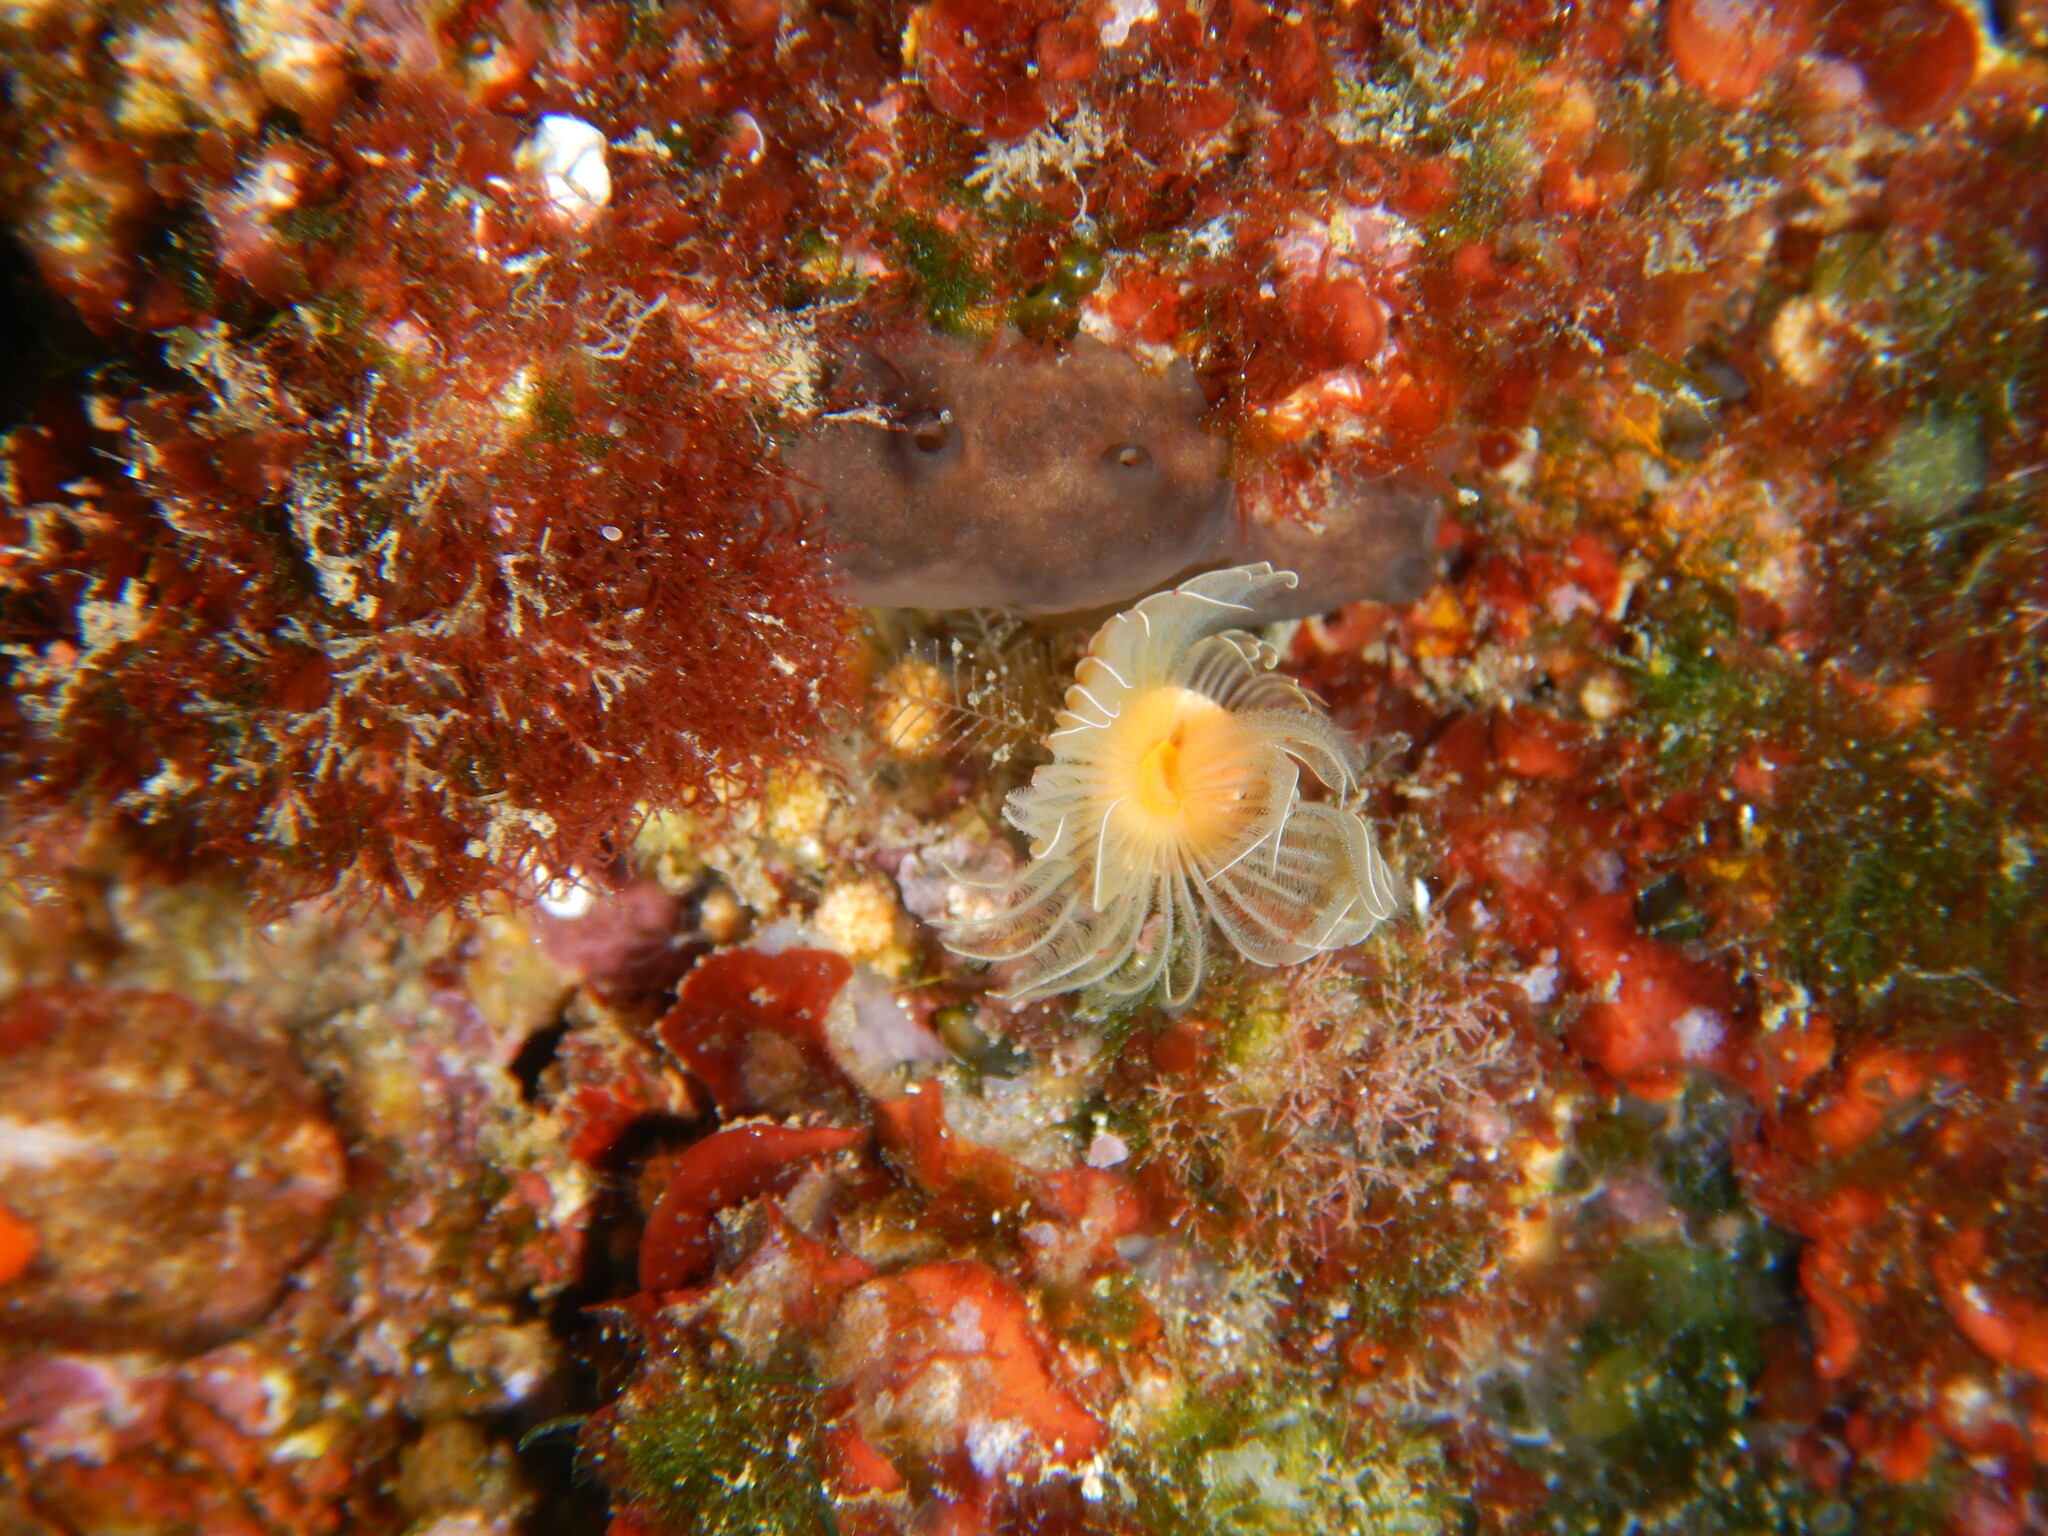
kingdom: Animalia
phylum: Annelida
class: Polychaeta
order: Sabellida
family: Serpulidae
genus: Protula
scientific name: Protula tubularia
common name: Red-spotted horseshoe
